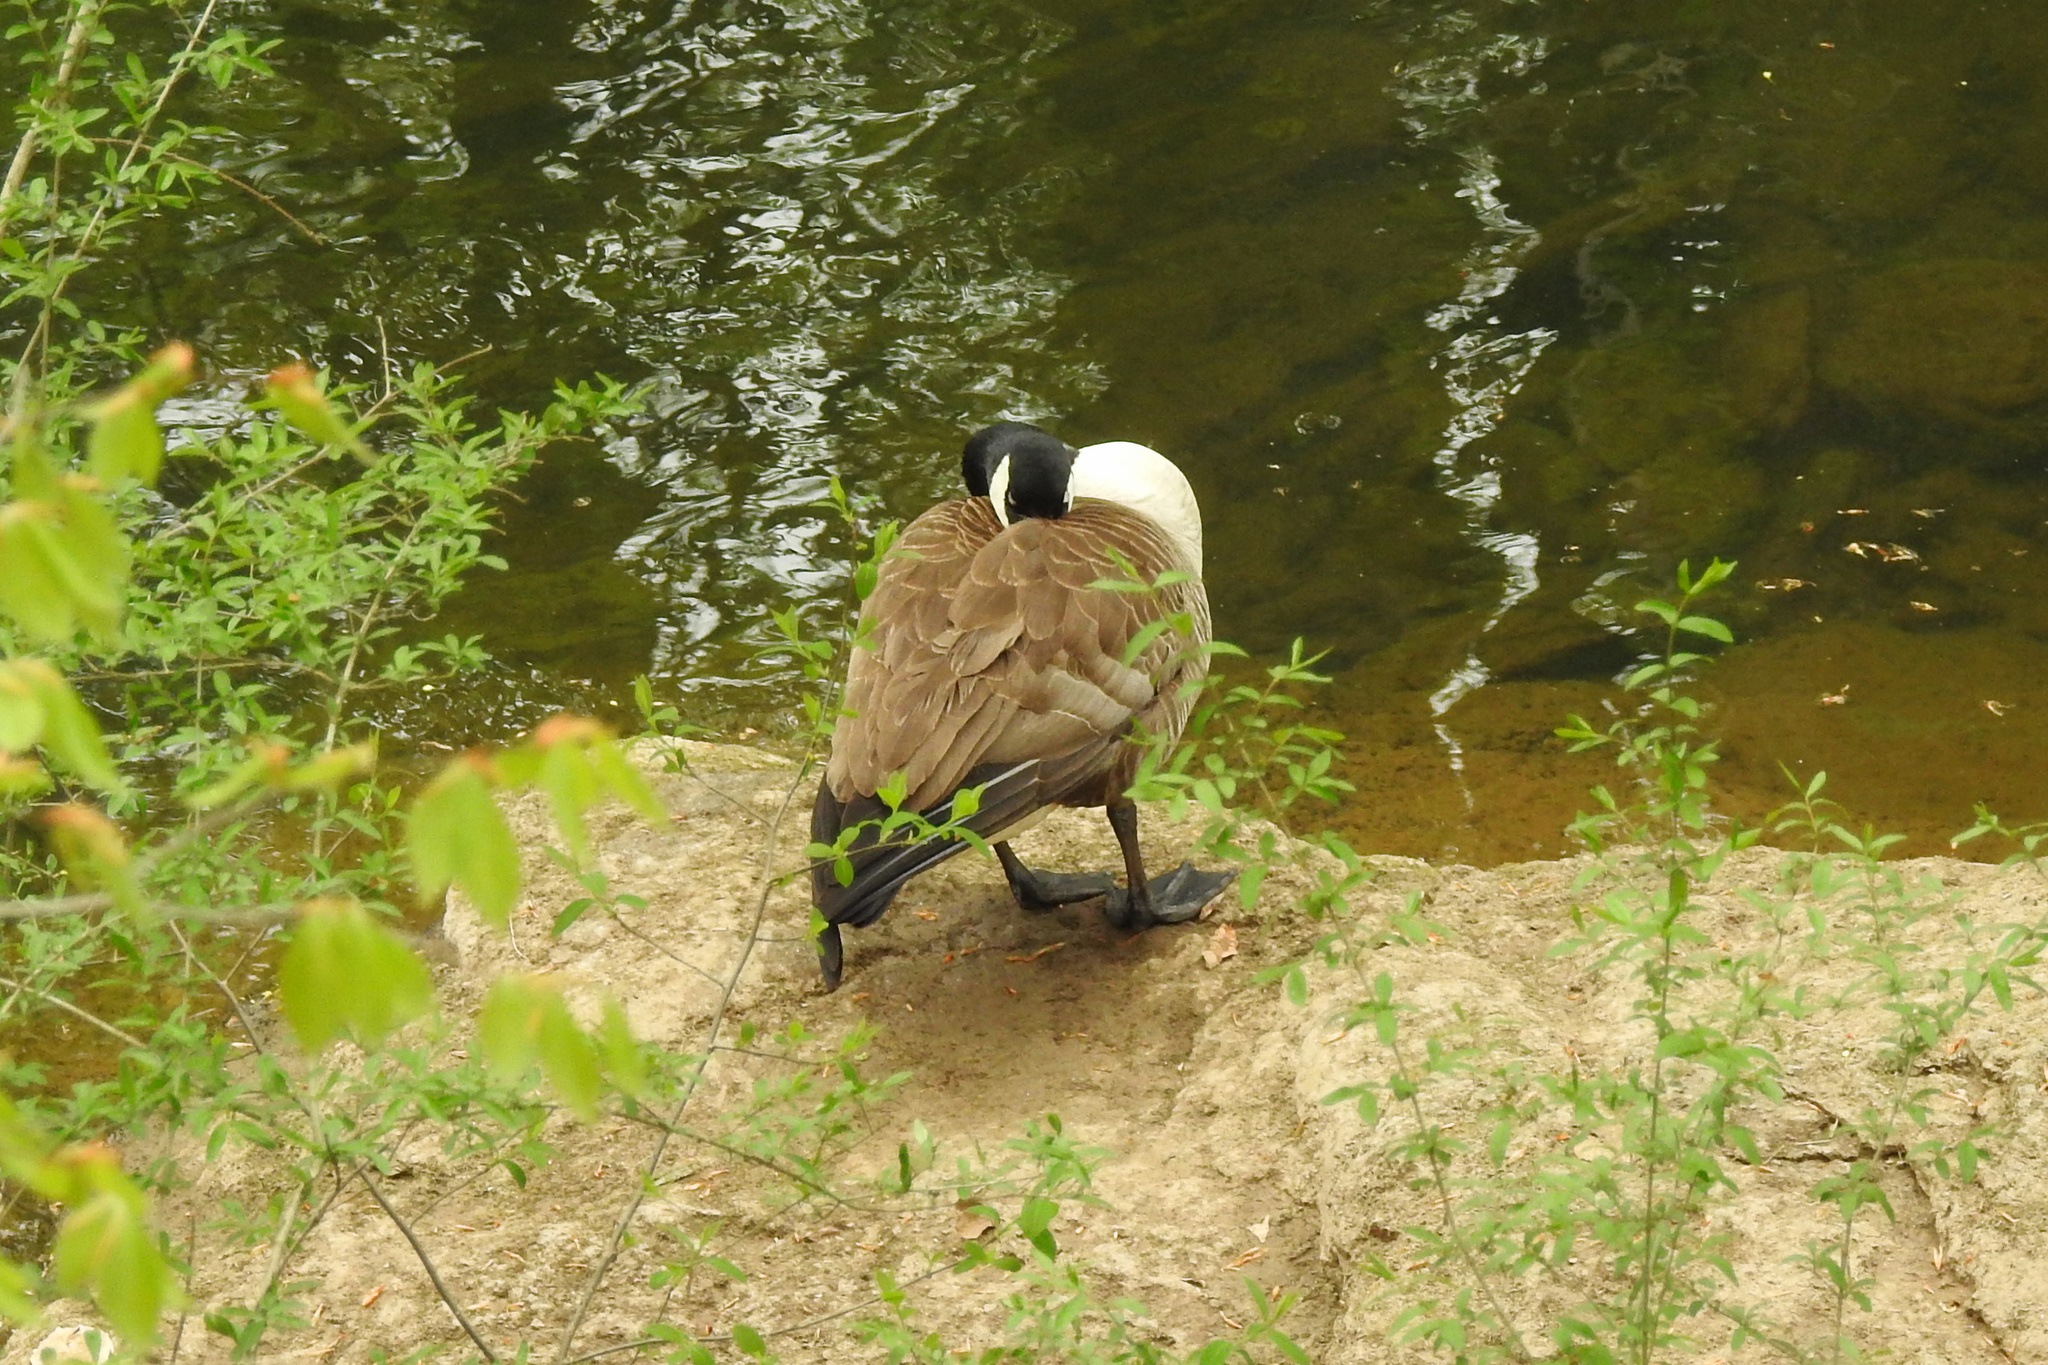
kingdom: Animalia
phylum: Chordata
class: Aves
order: Anseriformes
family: Anatidae
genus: Branta
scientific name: Branta canadensis
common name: Canada goose
